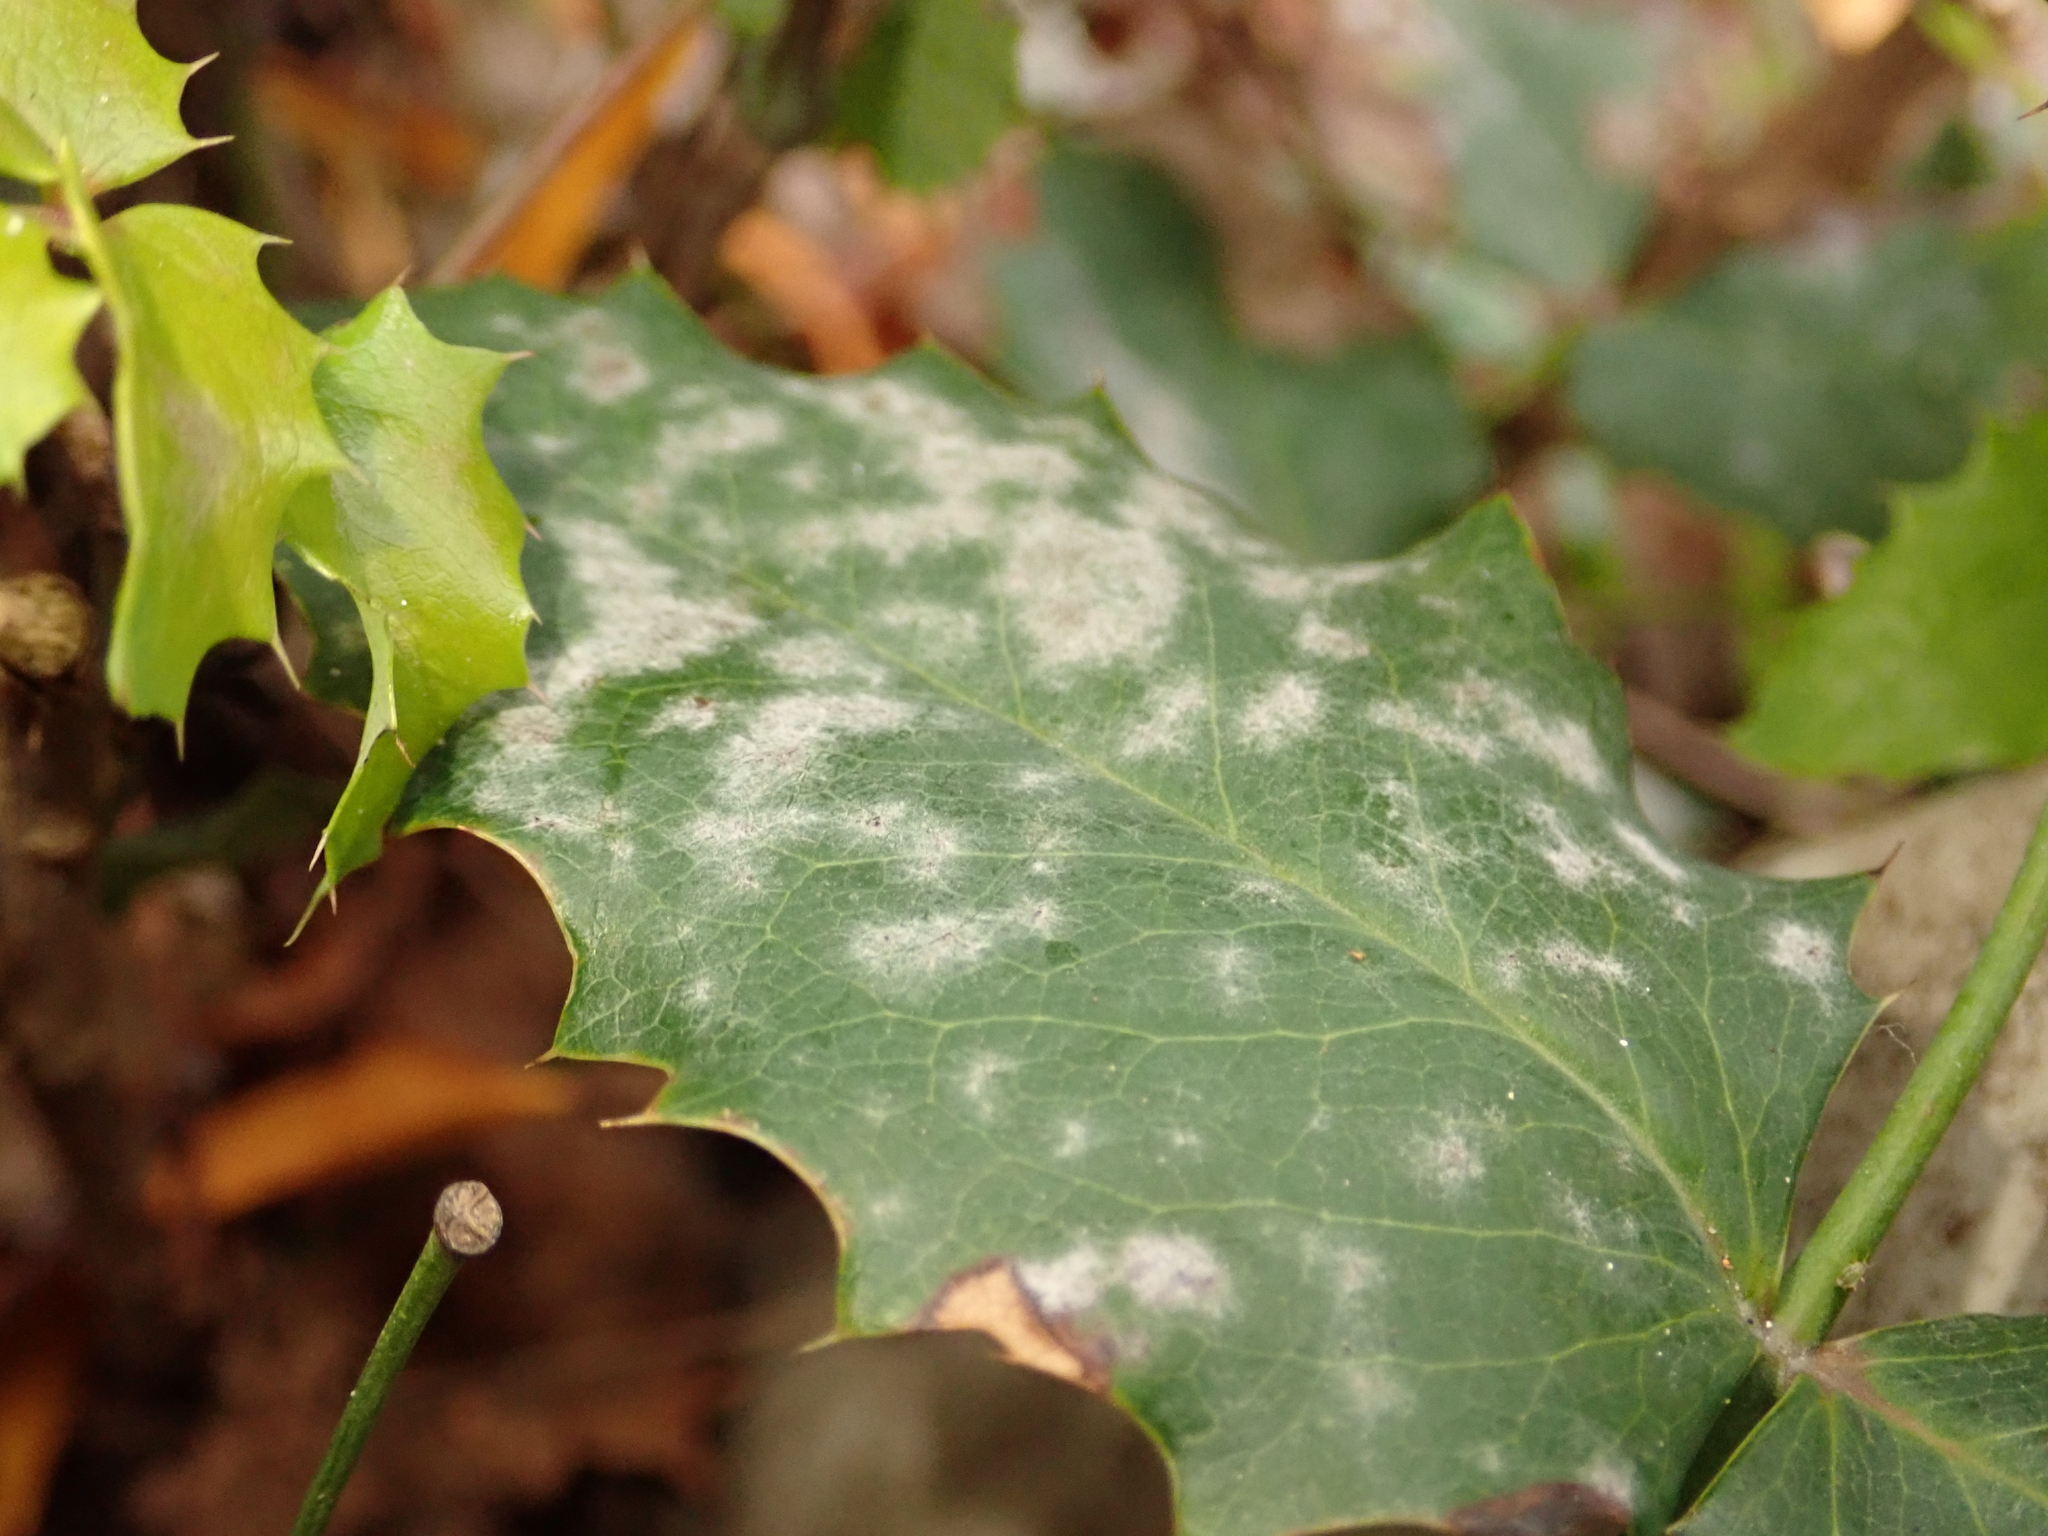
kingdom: Fungi
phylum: Ascomycota
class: Leotiomycetes
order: Helotiales
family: Erysiphaceae
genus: Erysiphe
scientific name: Erysiphe berberidis
